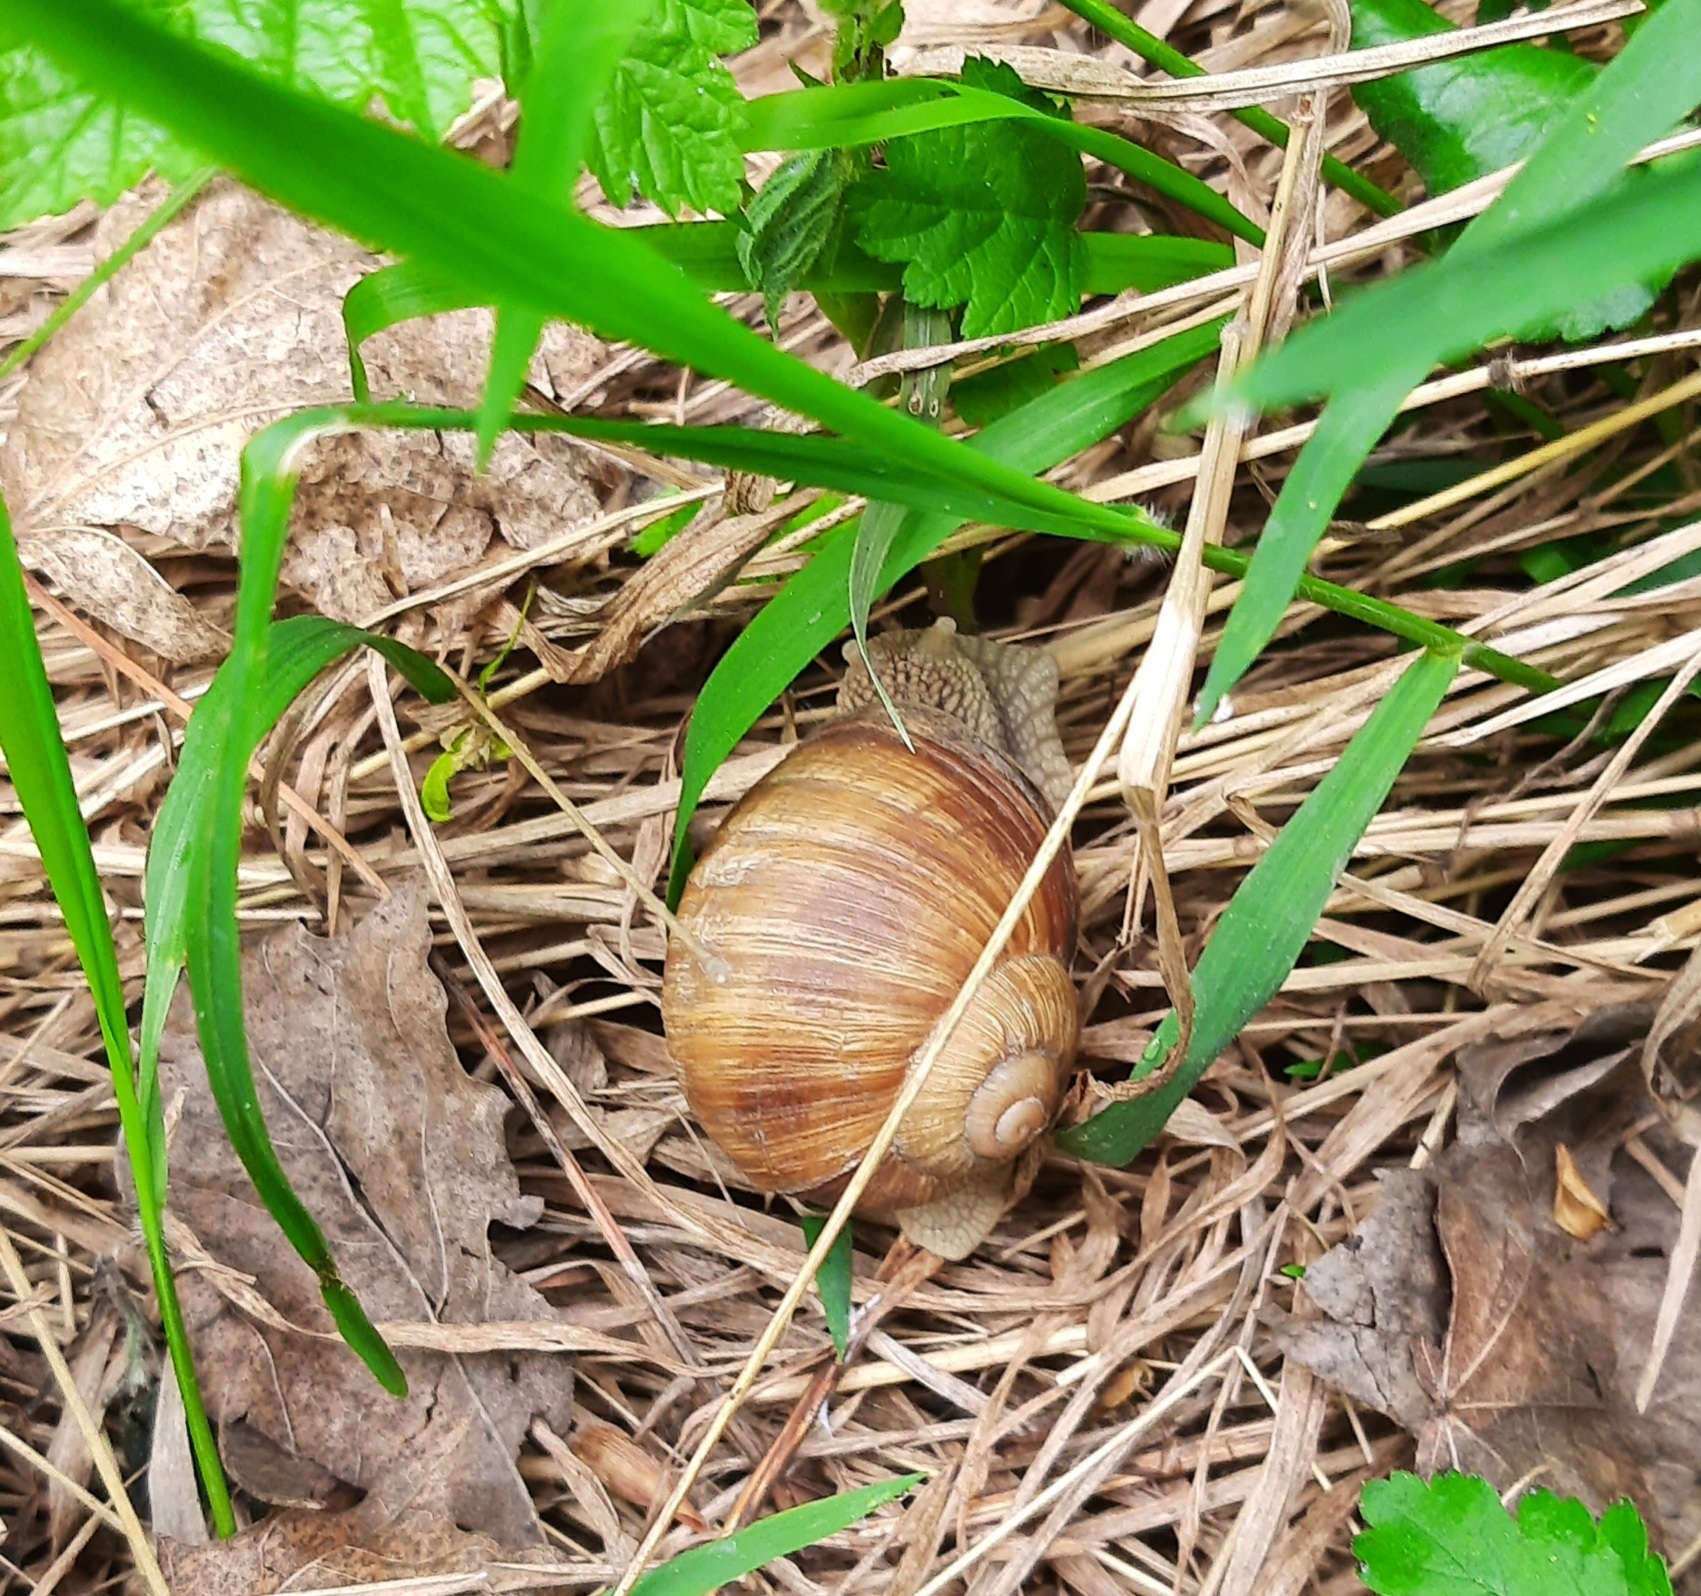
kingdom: Animalia
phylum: Mollusca
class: Gastropoda
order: Stylommatophora
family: Helicidae
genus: Helix
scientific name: Helix pomatia
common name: Roman snail
